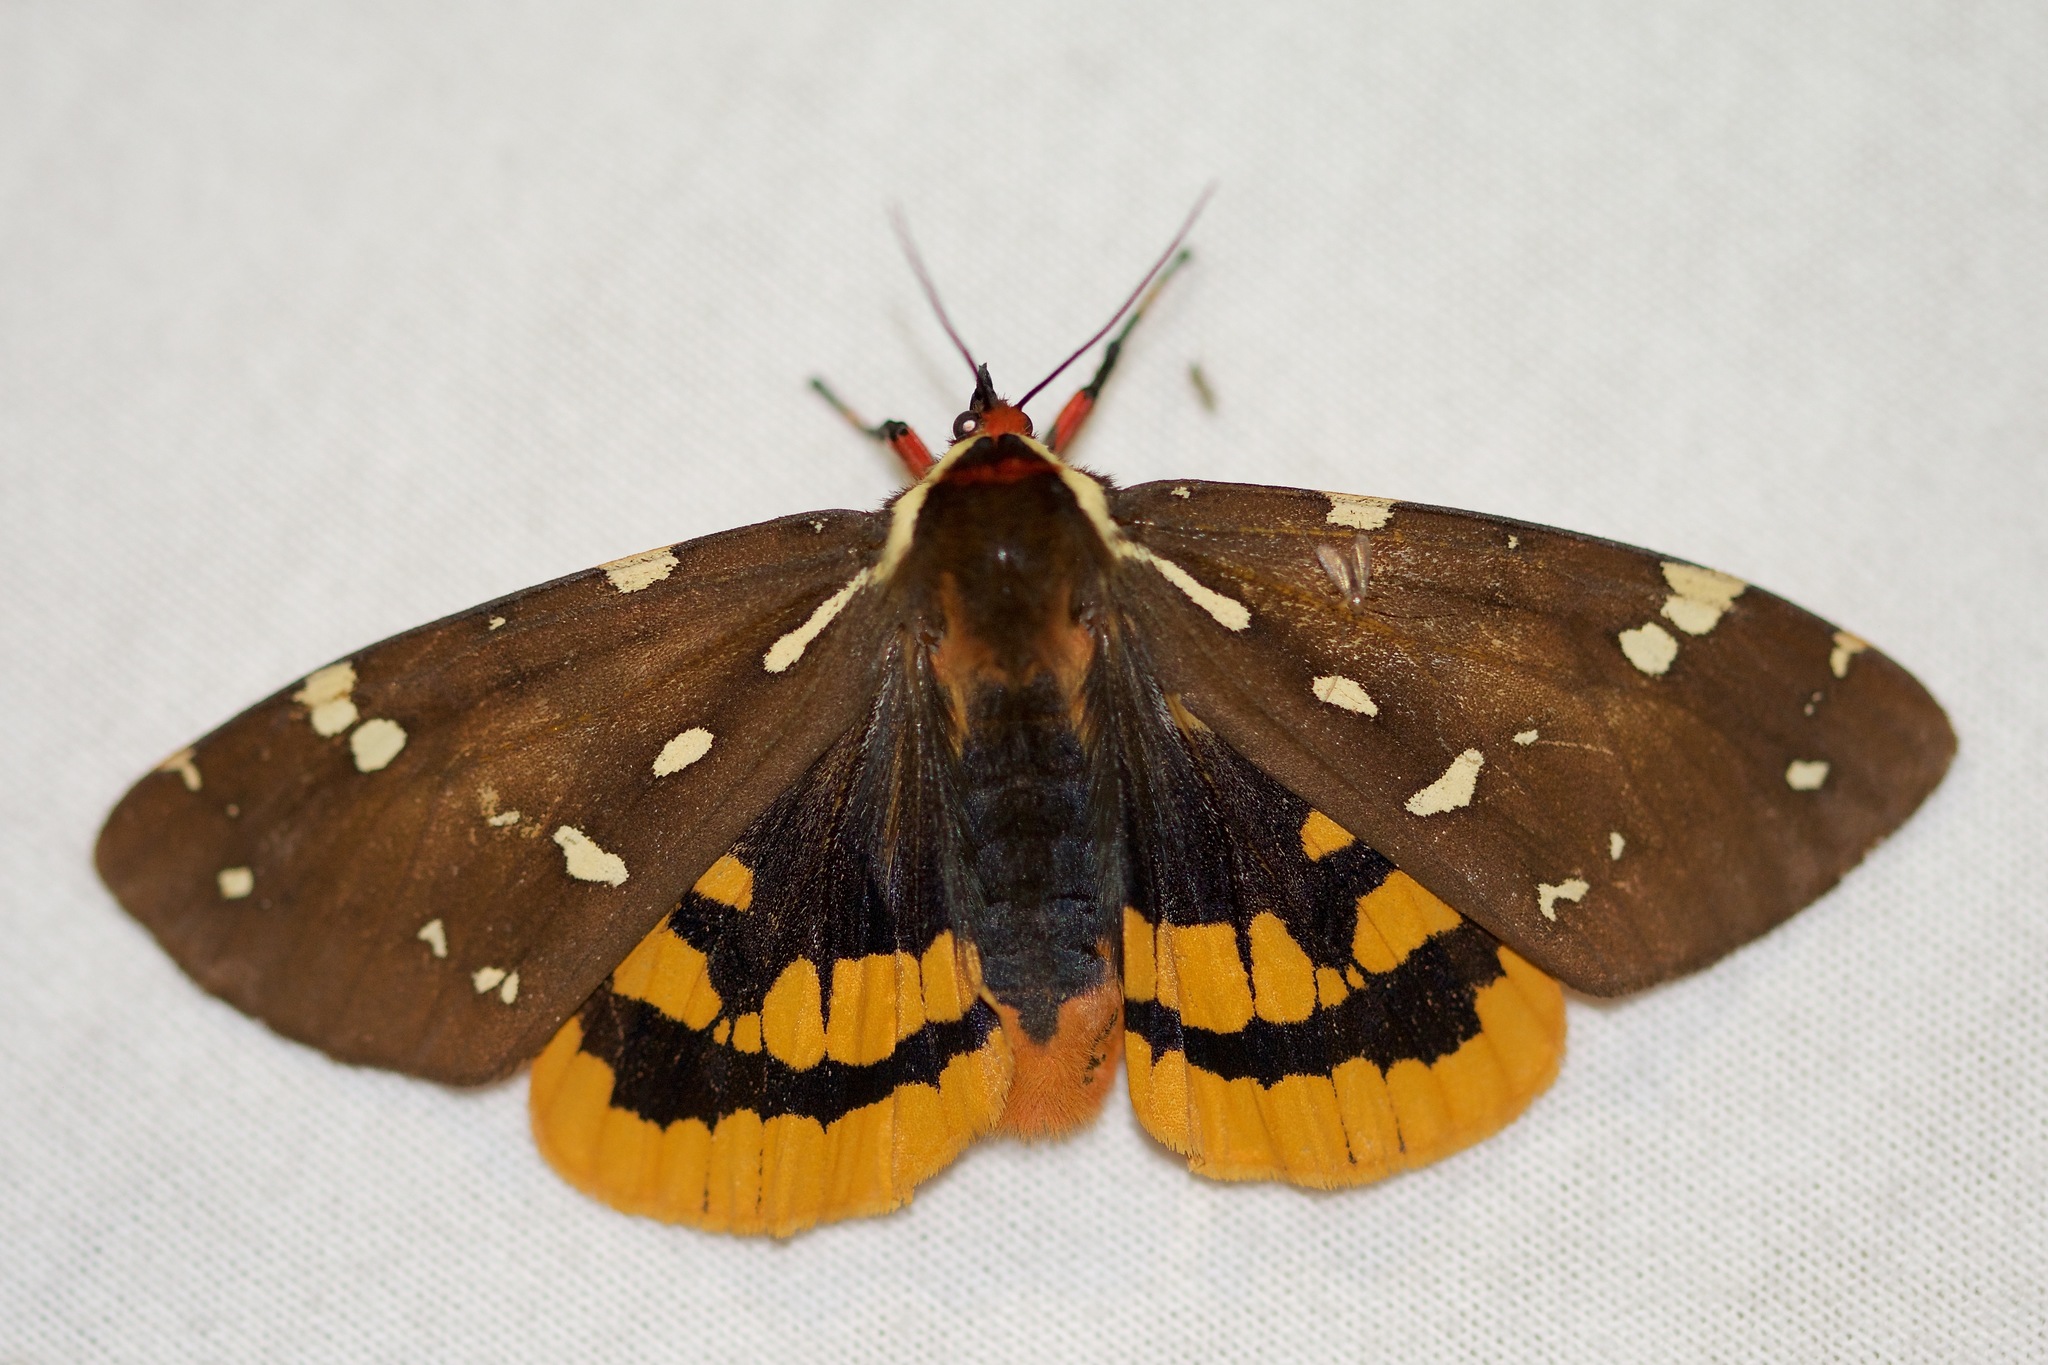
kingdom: Animalia
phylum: Arthropoda
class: Insecta
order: Lepidoptera
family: Erebidae
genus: Arctia
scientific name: Arctia parthenos
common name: St. lawrence tiger moth
